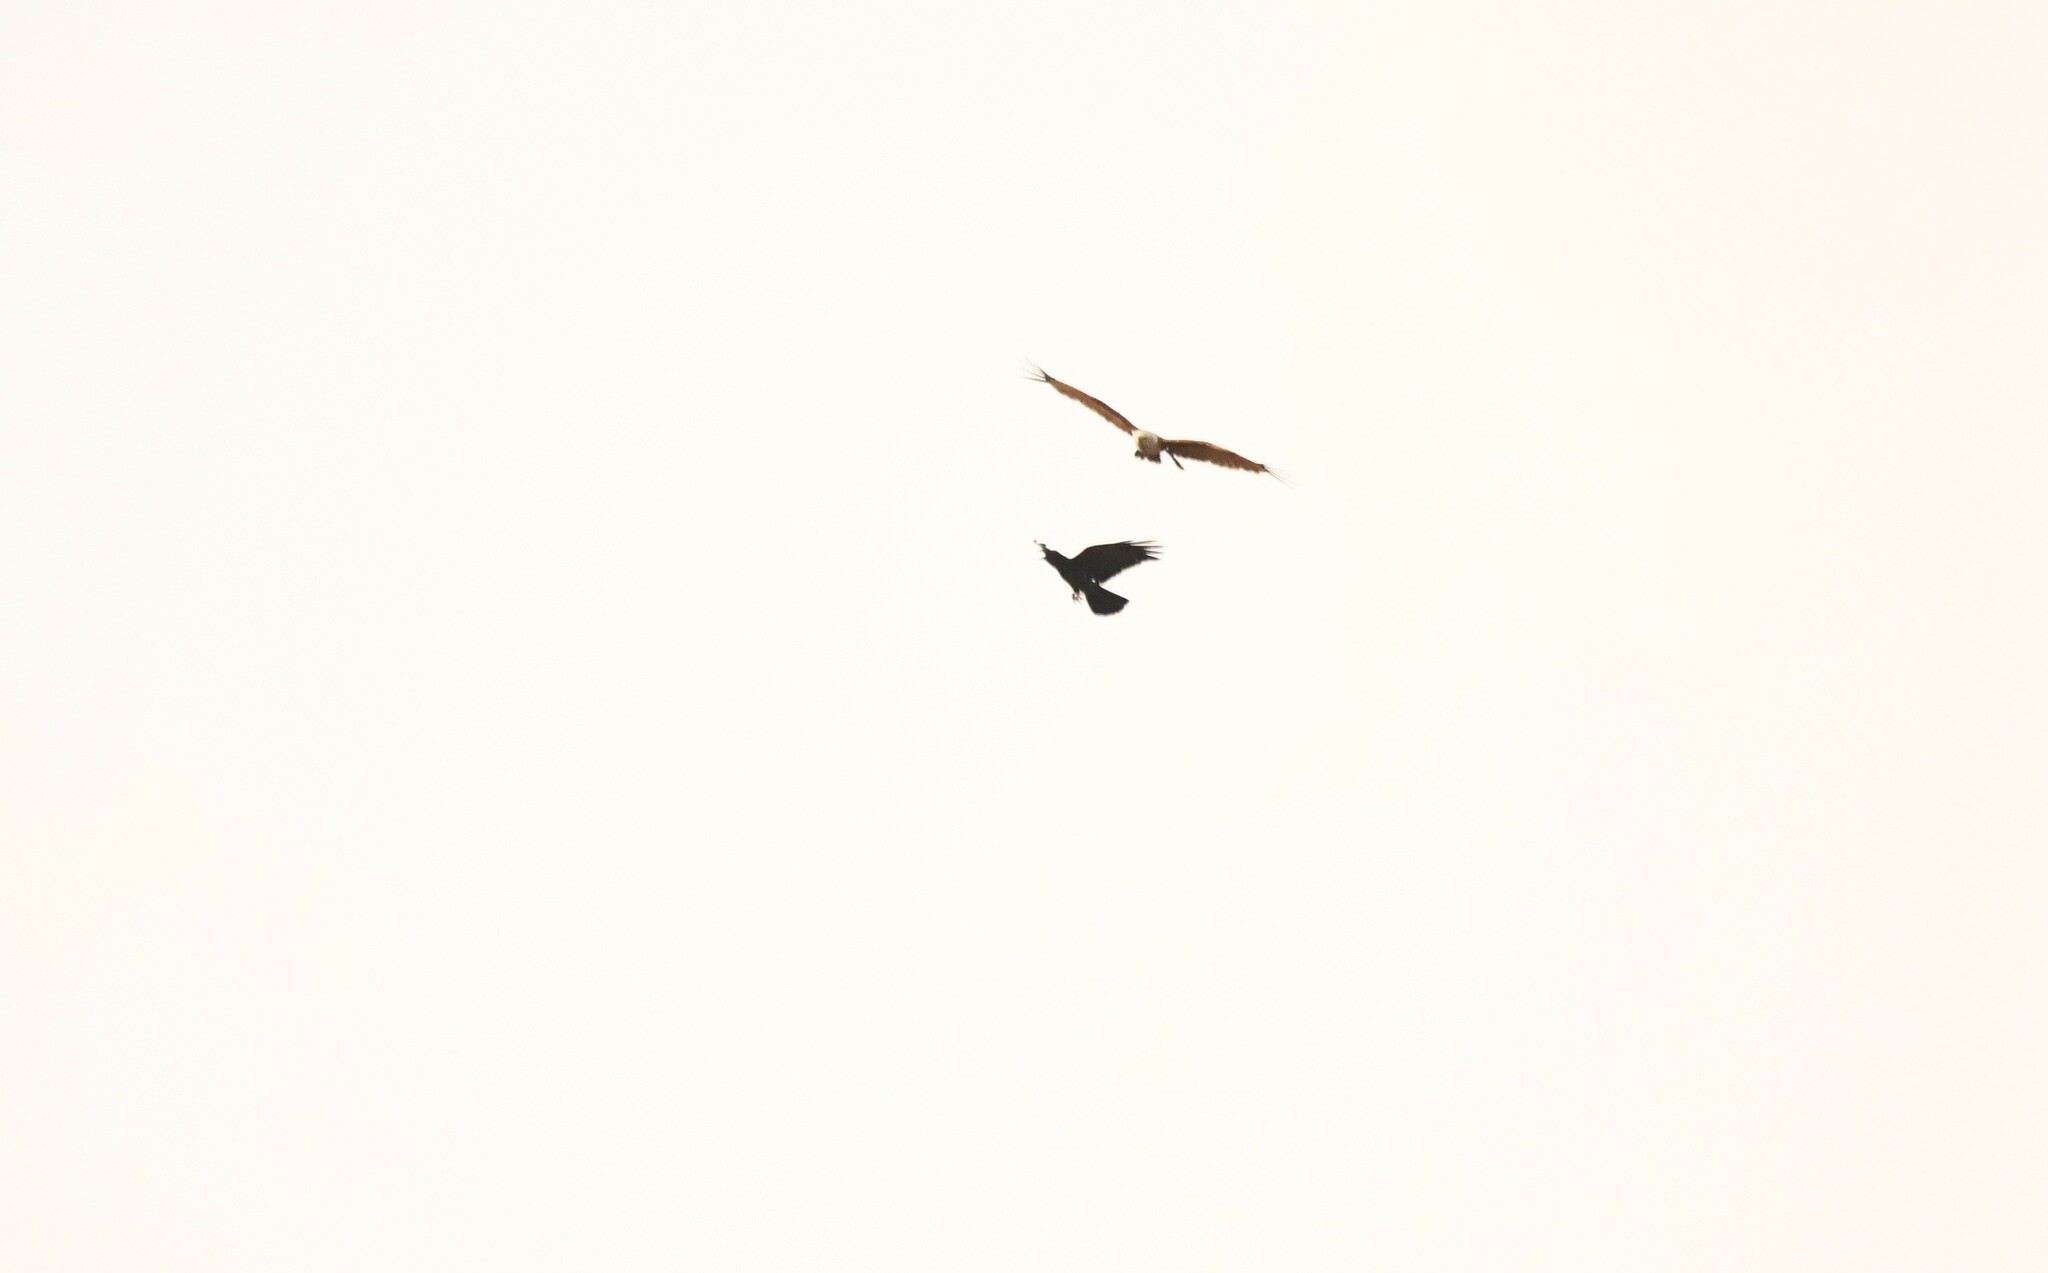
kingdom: Animalia
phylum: Chordata
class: Aves
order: Passeriformes
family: Corvidae
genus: Corvus
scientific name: Corvus macrorhynchos
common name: Large-billed crow
